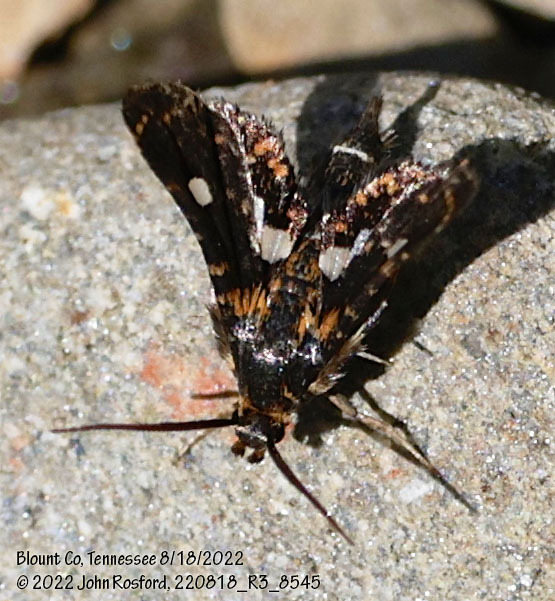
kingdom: Animalia
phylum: Arthropoda
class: Insecta
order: Lepidoptera
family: Thyrididae
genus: Thyris
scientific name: Thyris maculata
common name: Spotted thyris moth
